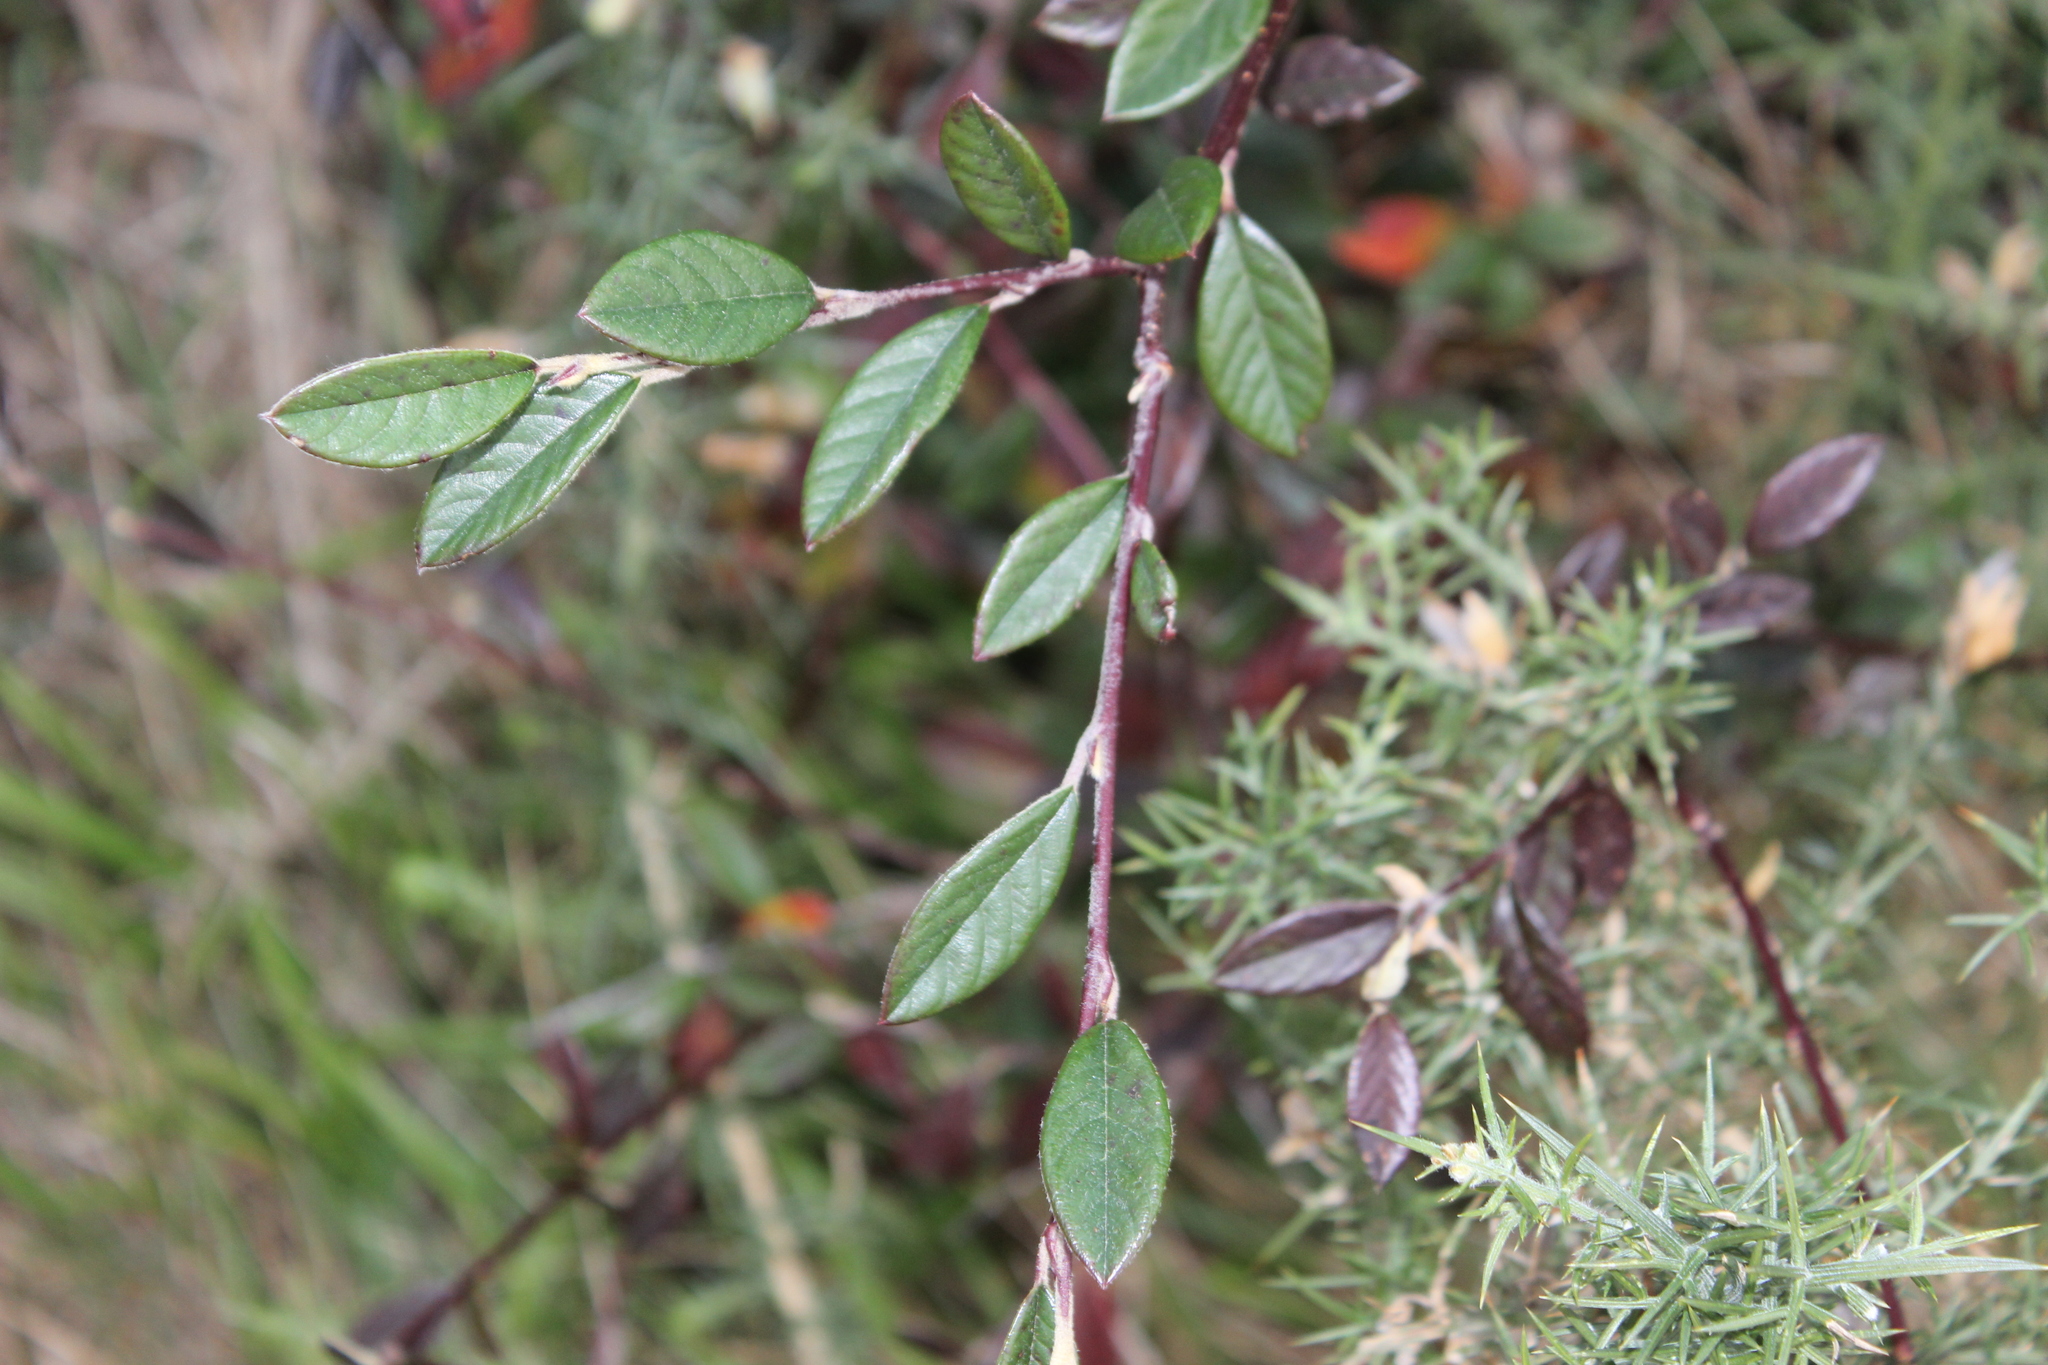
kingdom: Plantae
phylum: Tracheophyta
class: Magnoliopsida
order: Rosales
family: Rosaceae
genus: Cotoneaster
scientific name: Cotoneaster coriaceus
